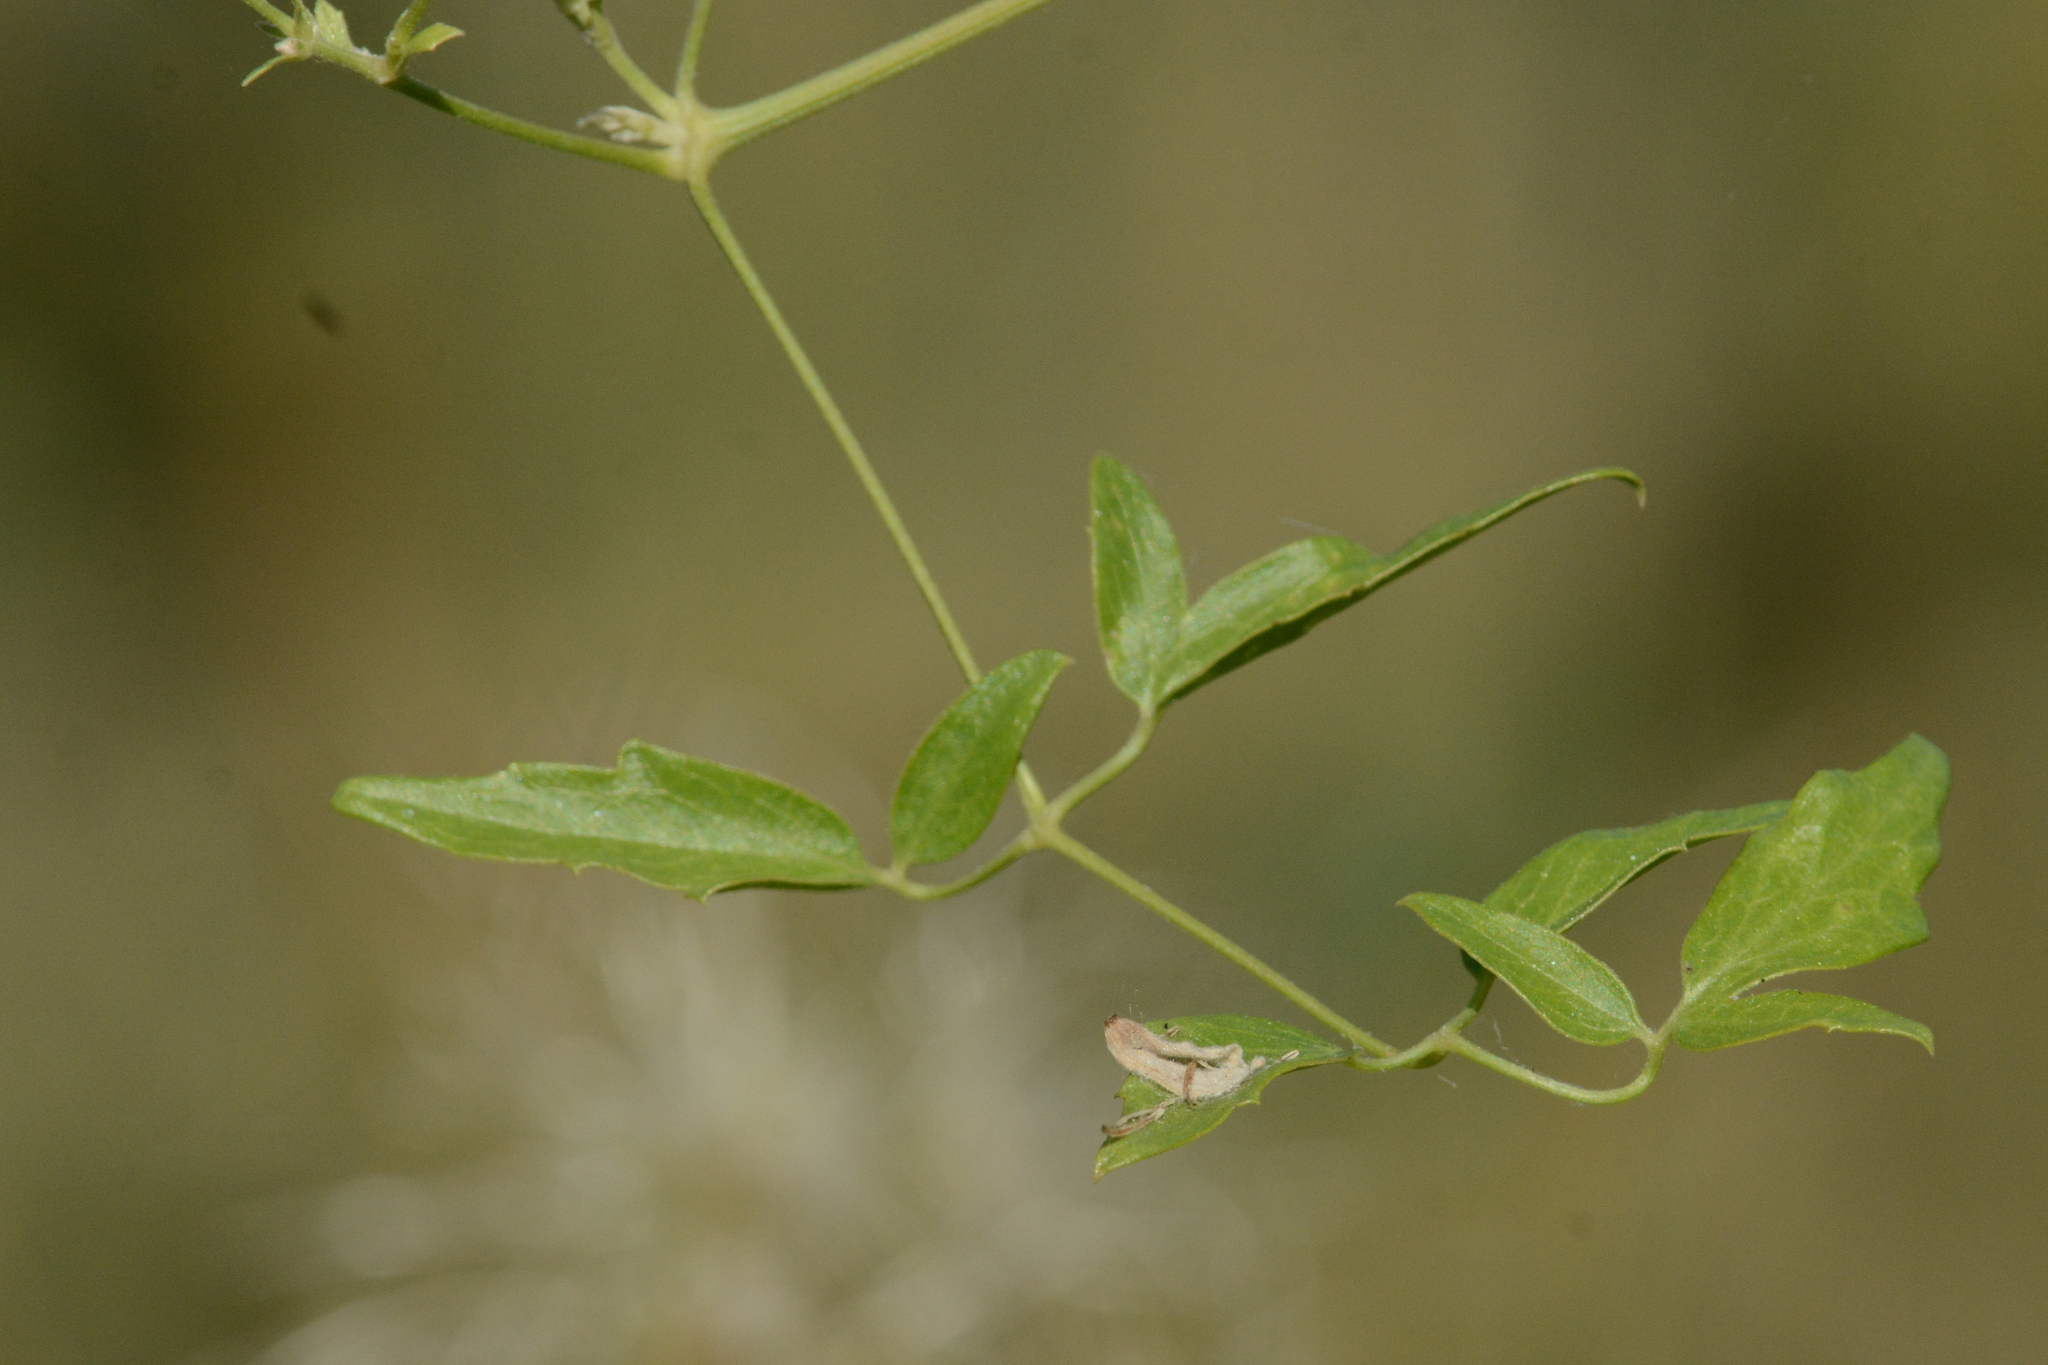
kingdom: Plantae
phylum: Tracheophyta
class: Magnoliopsida
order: Ranunculales
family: Ranunculaceae
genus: Clematis
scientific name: Clematis ligusticifolia
